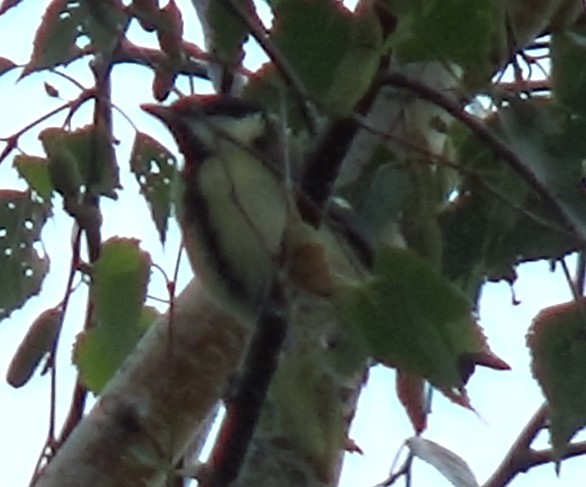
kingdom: Animalia
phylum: Chordata
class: Aves
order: Passeriformes
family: Paridae
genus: Parus
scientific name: Parus major
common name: Great tit
